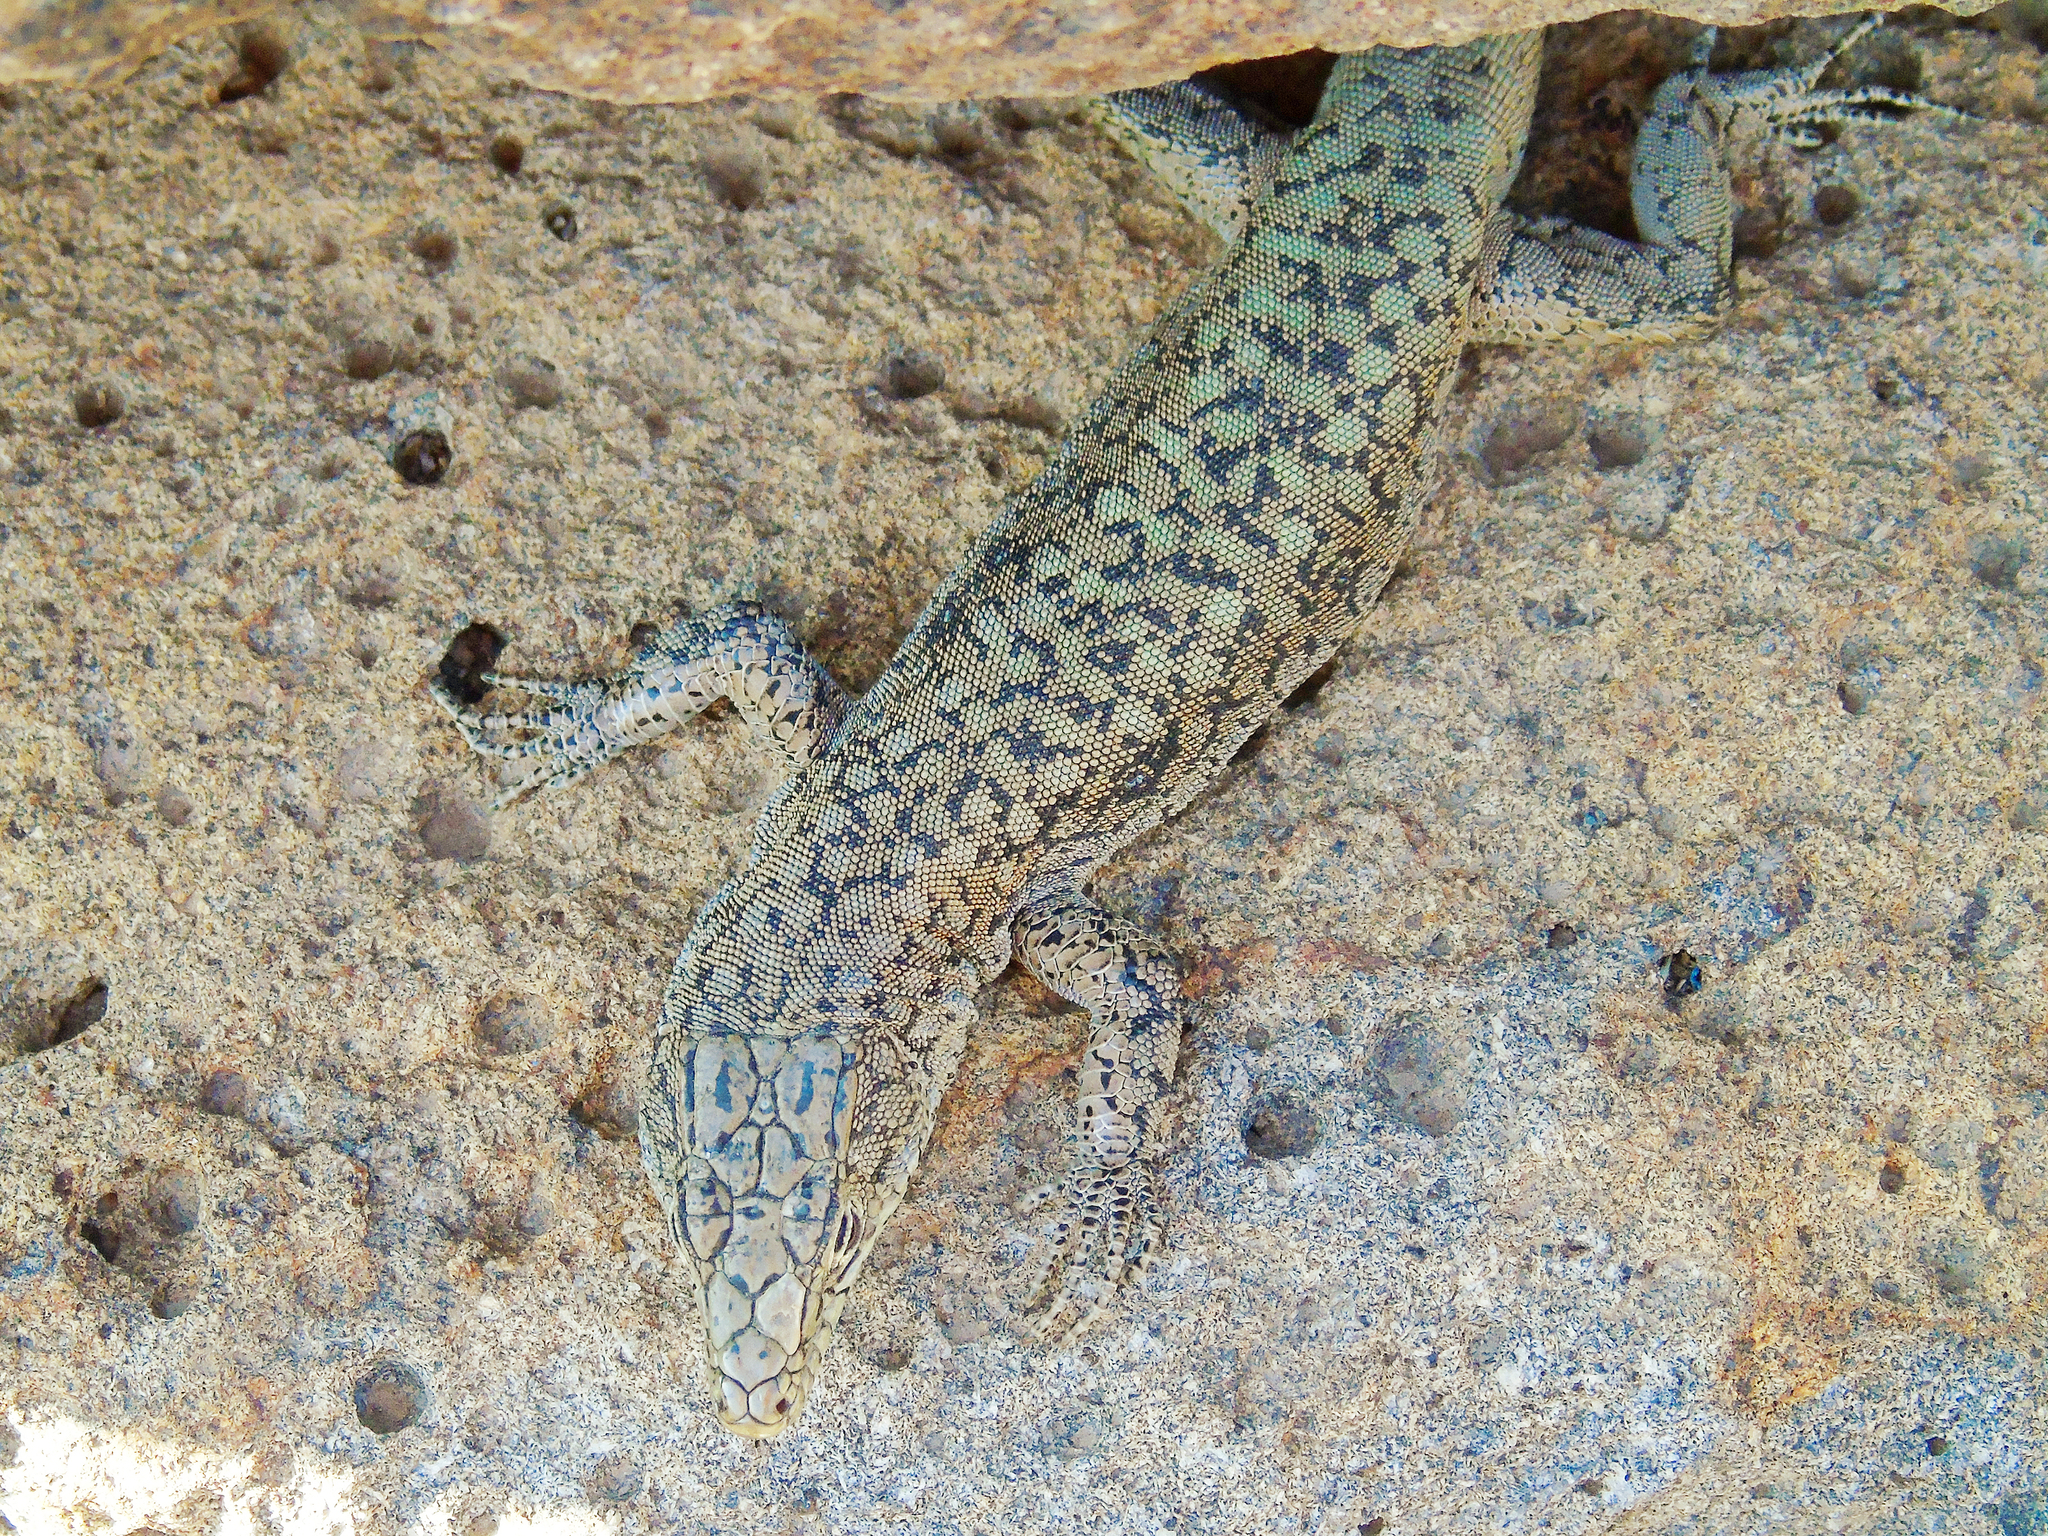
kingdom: Animalia
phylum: Chordata
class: Squamata
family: Lacertidae
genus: Apathya
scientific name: Apathya cappadocica
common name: Anatolian lizard
